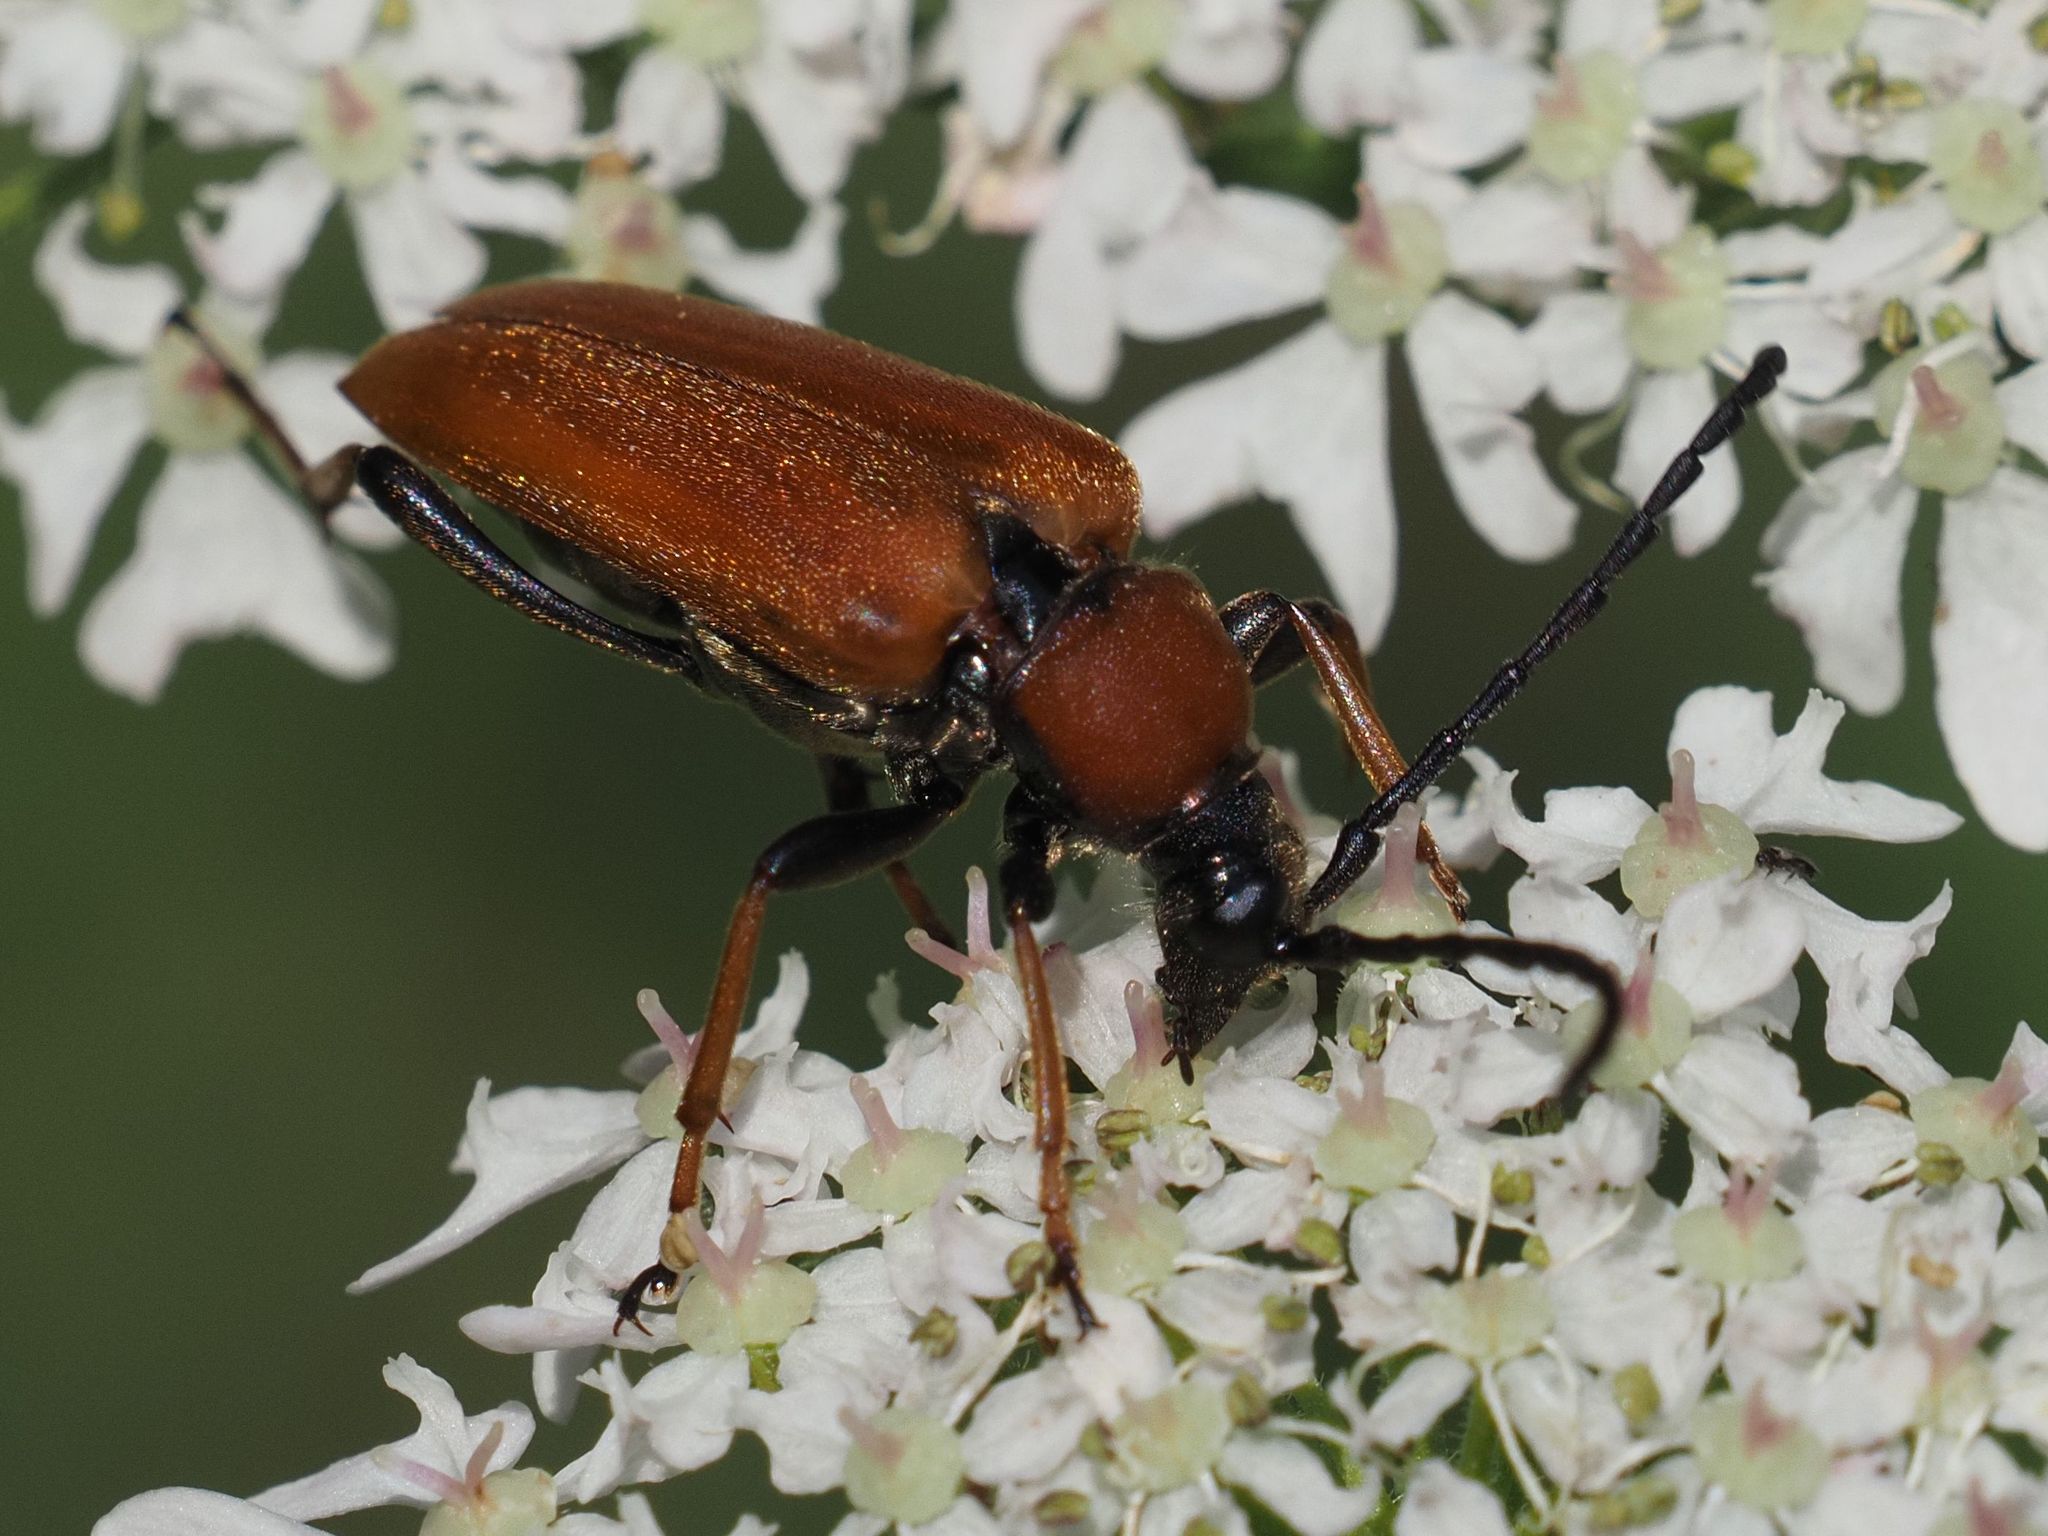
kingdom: Animalia
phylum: Arthropoda
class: Insecta
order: Coleoptera
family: Cerambycidae
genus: Stictoleptura
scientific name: Stictoleptura rubra
